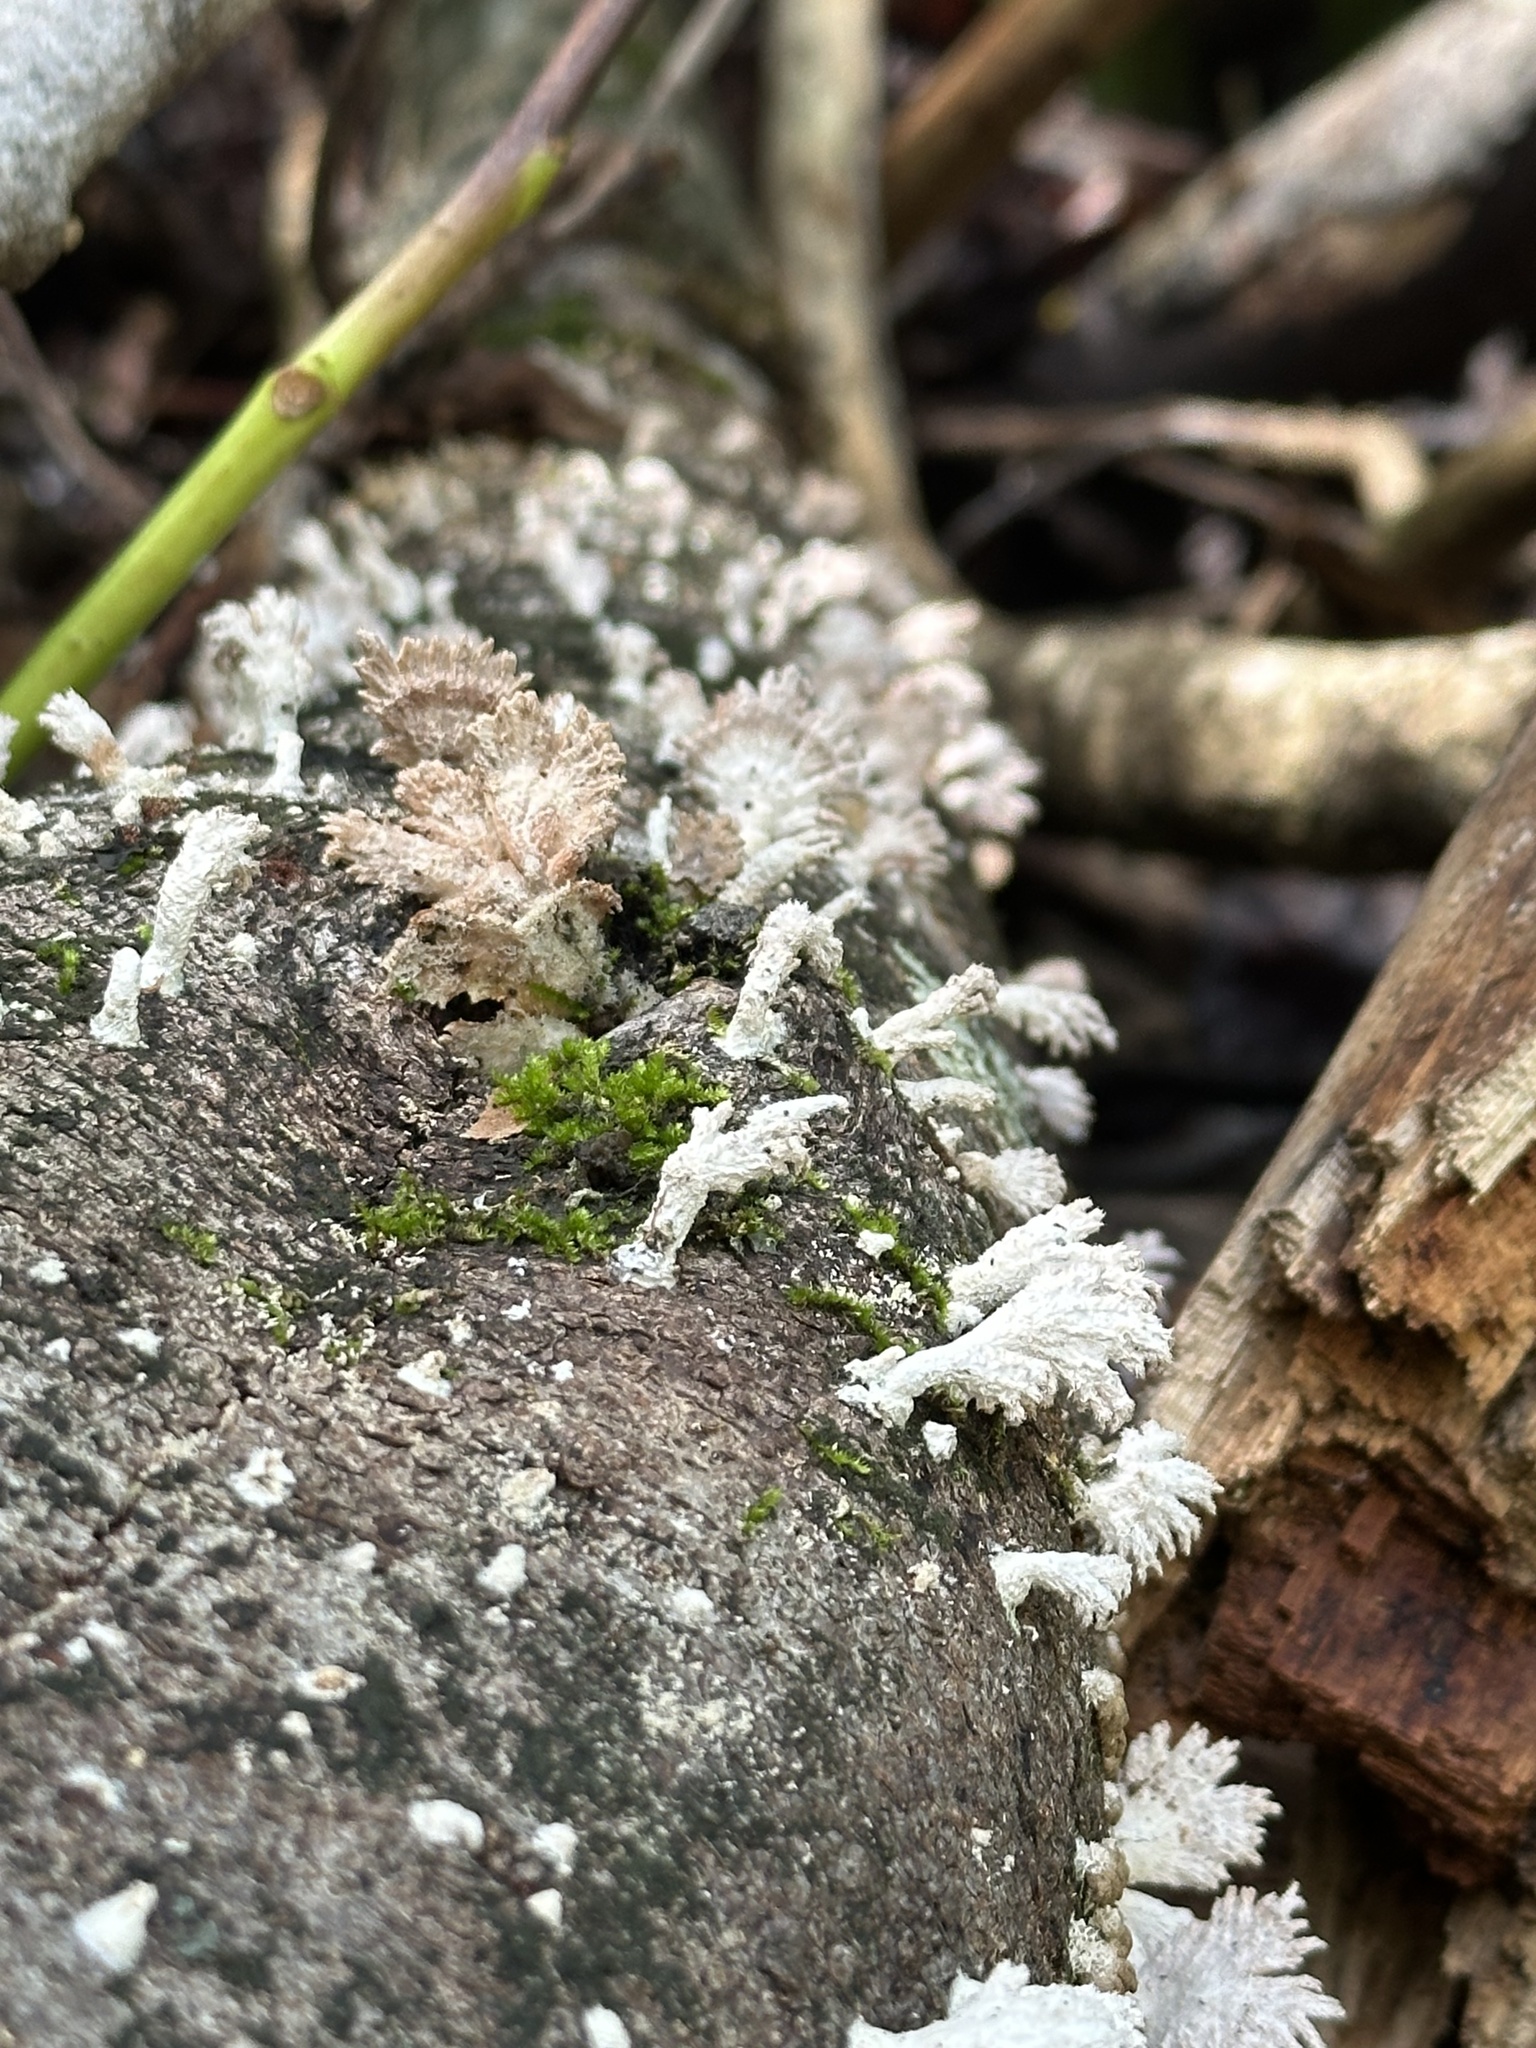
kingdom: Fungi
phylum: Basidiomycota
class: Agaricomycetes
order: Agaricales
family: Schizophyllaceae
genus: Schizophyllum
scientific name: Schizophyllum commune
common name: Common porecrust
